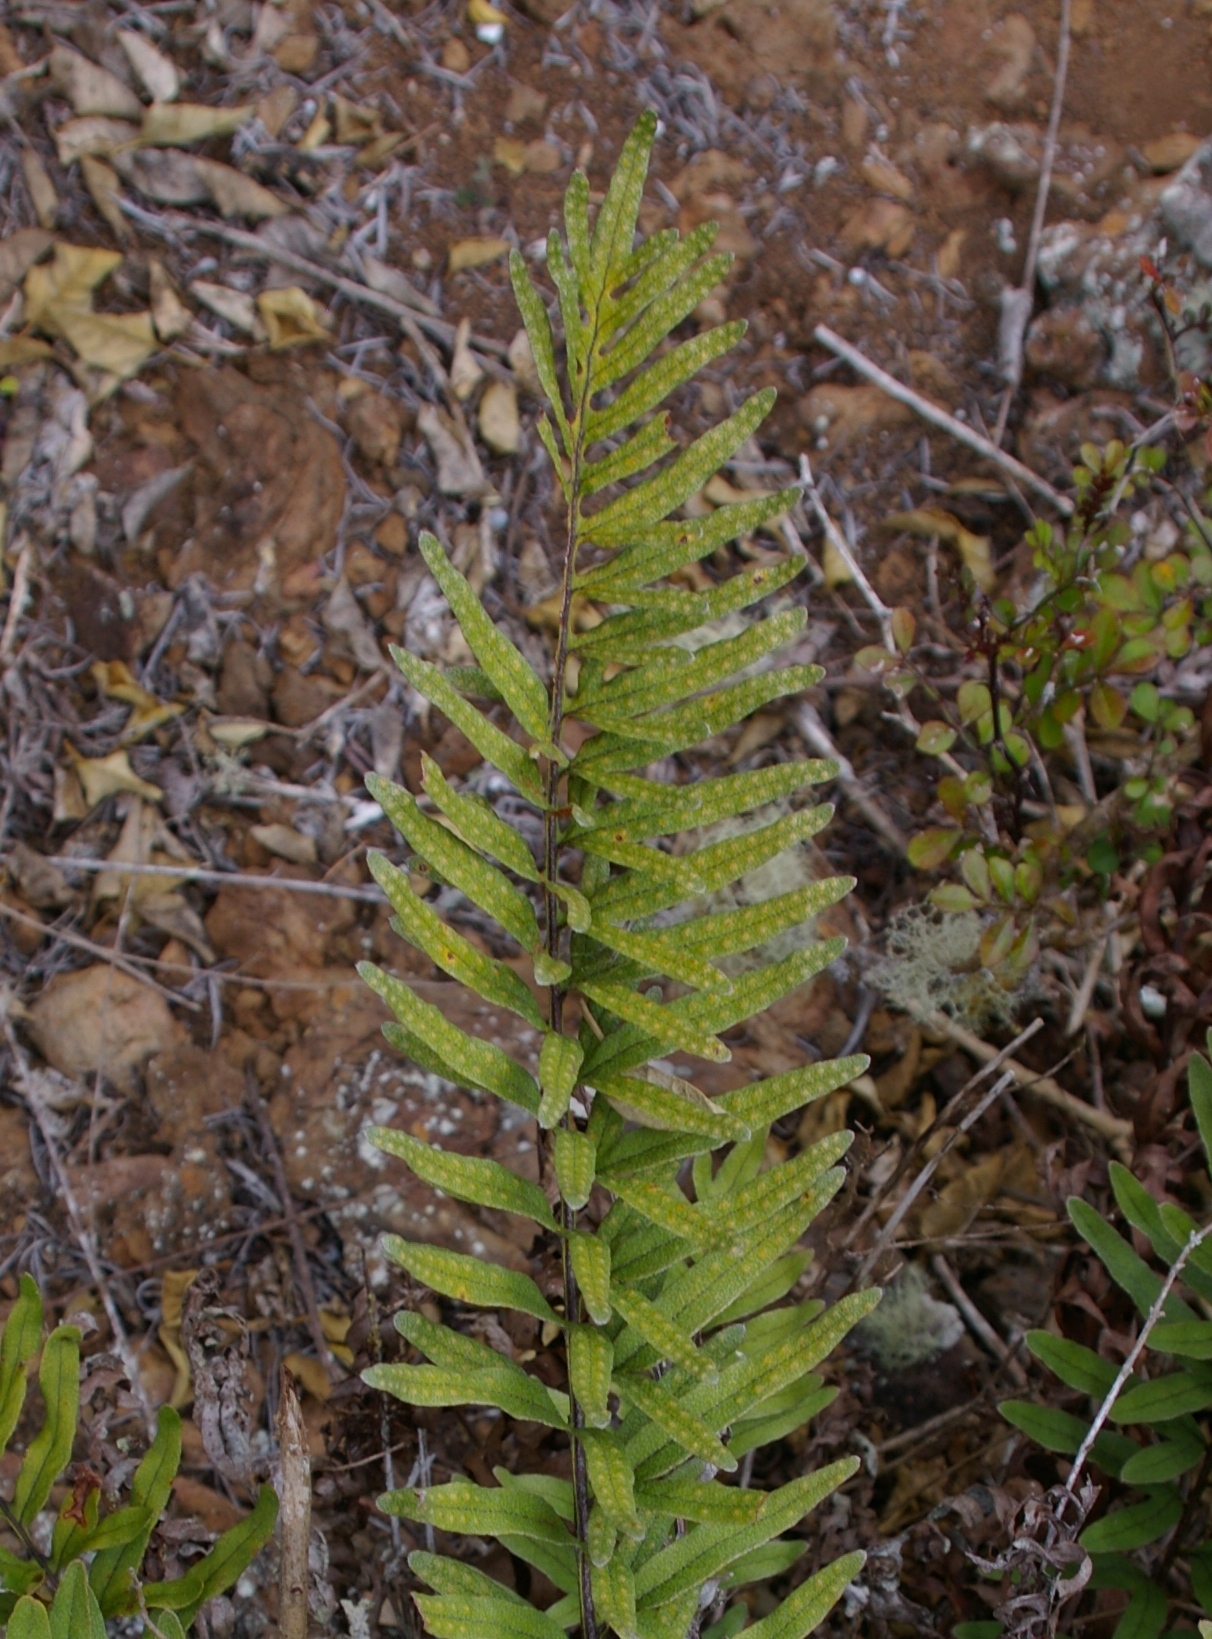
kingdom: Plantae
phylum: Tracheophyta
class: Polypodiopsida
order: Polypodiales
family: Polypodiaceae
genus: Pleopeltis
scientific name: Pleopeltis tridens
